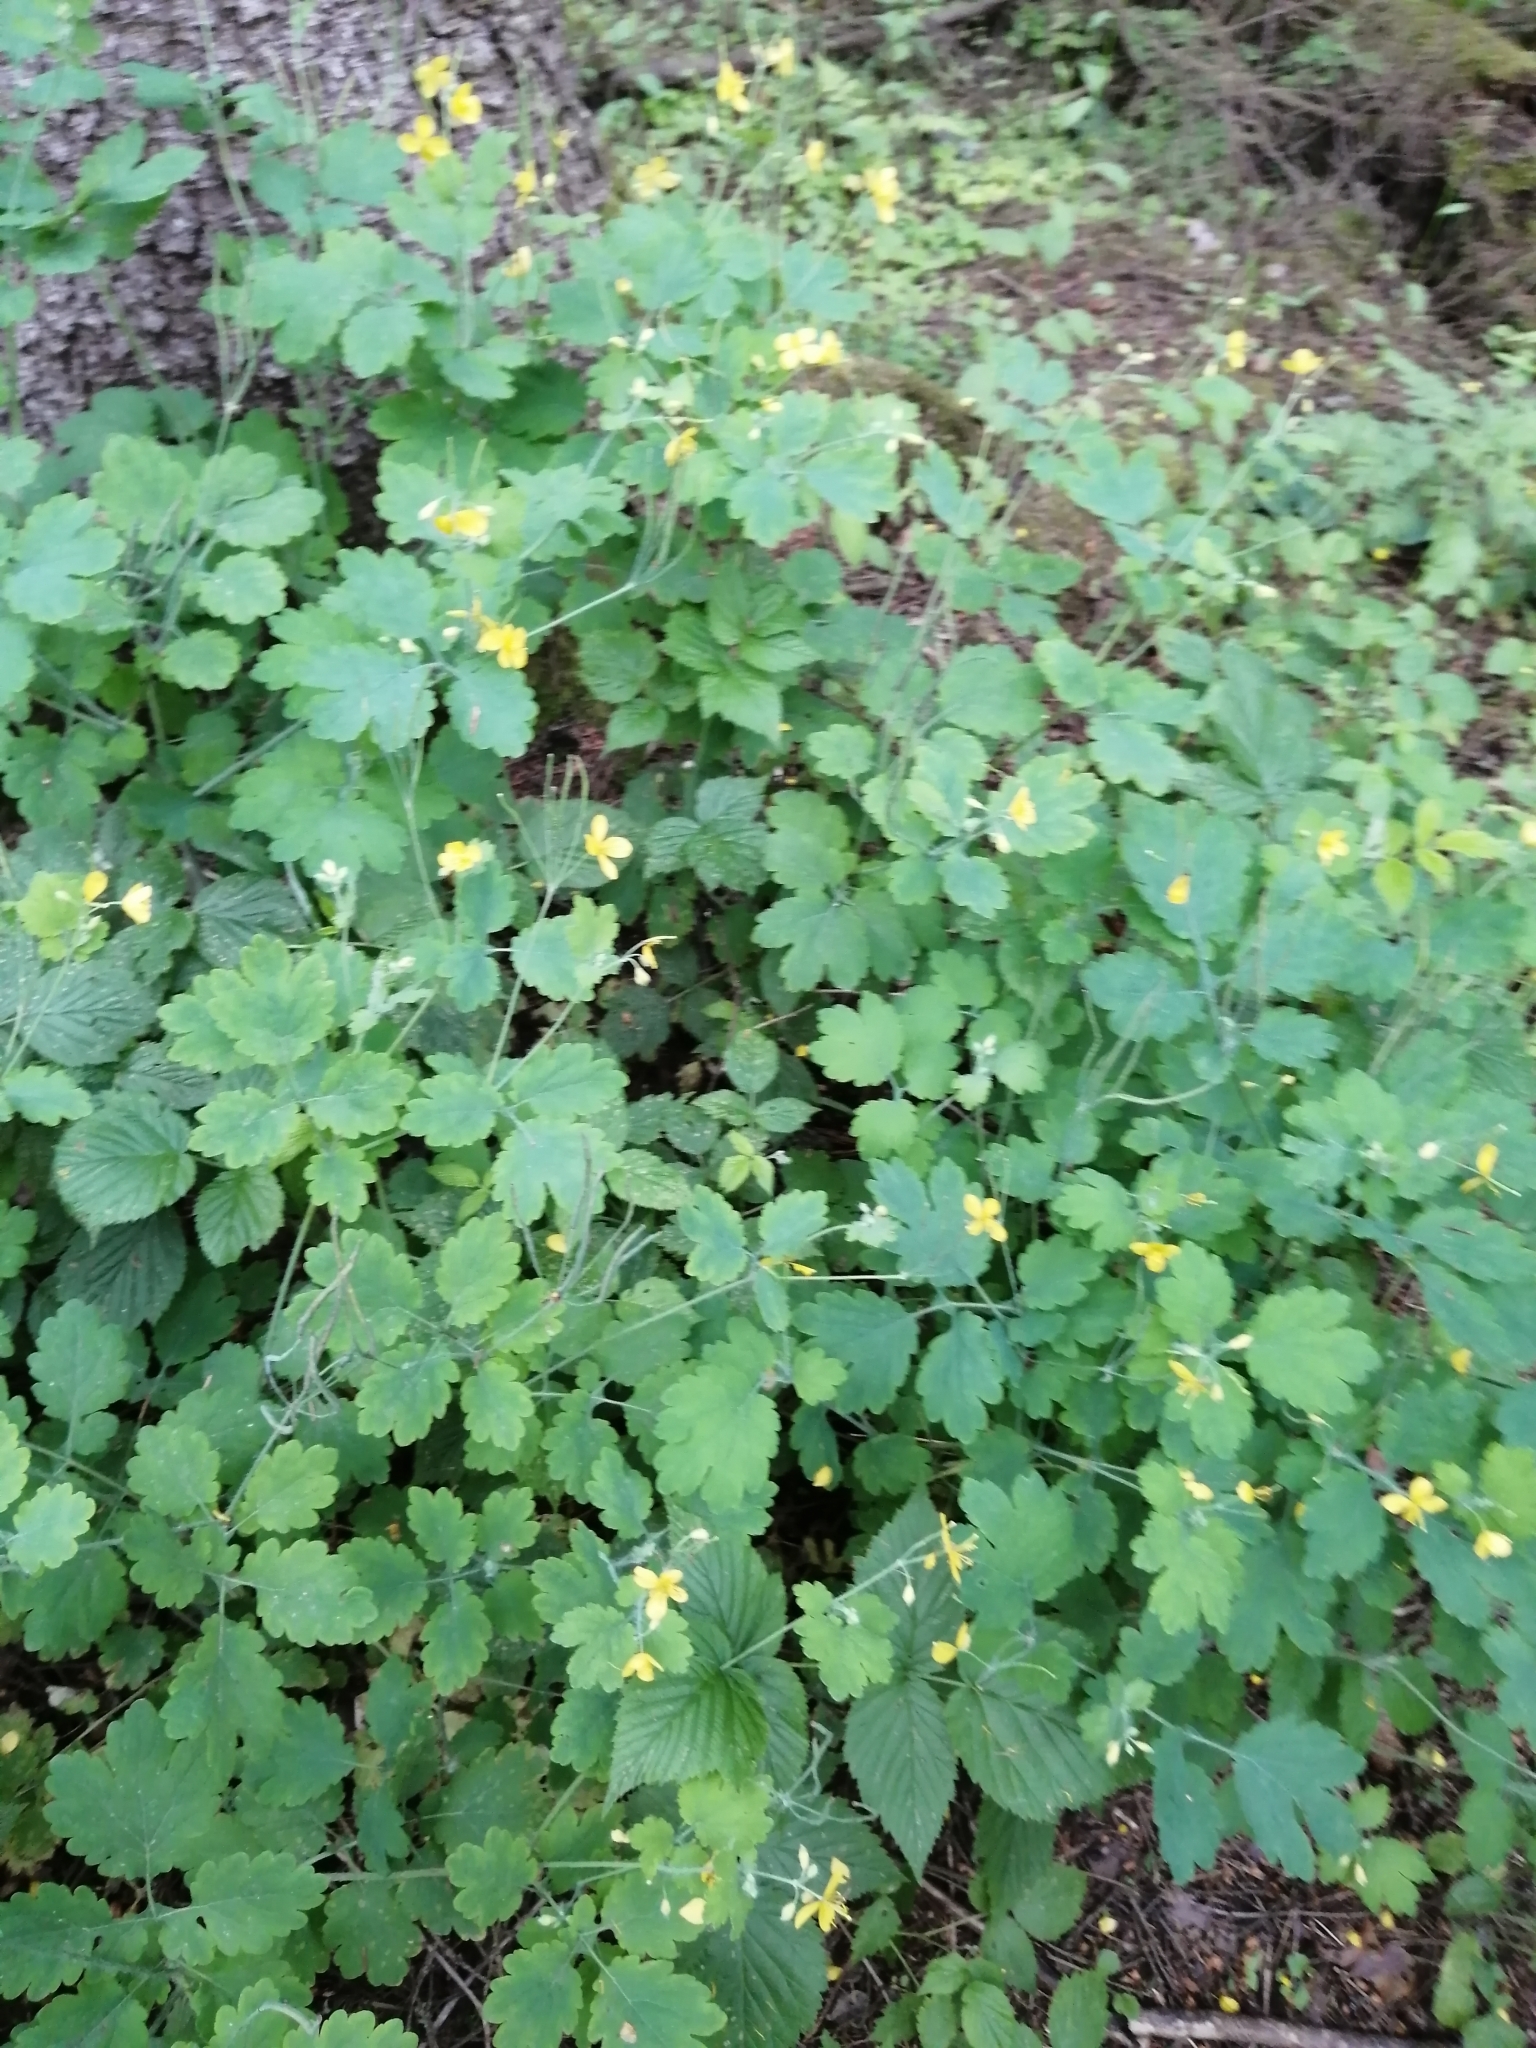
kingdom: Plantae
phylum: Tracheophyta
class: Magnoliopsida
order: Ranunculales
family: Papaveraceae
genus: Chelidonium
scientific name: Chelidonium majus
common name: Greater celandine
